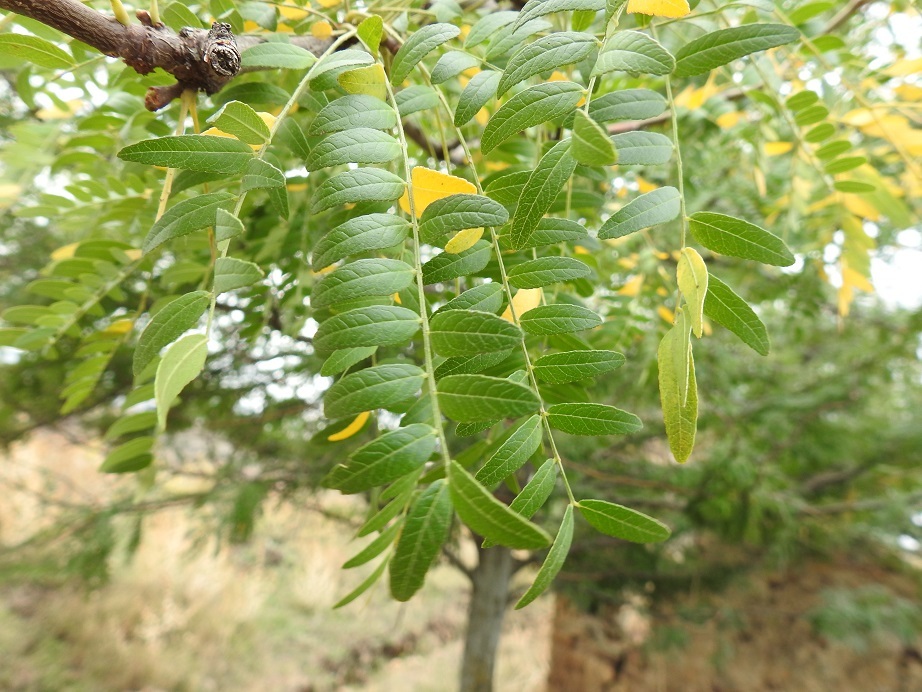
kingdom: Plantae
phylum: Tracheophyta
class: Magnoliopsida
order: Fabales
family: Fabaceae
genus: Gleditsia
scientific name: Gleditsia triacanthos
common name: Common honeylocust
